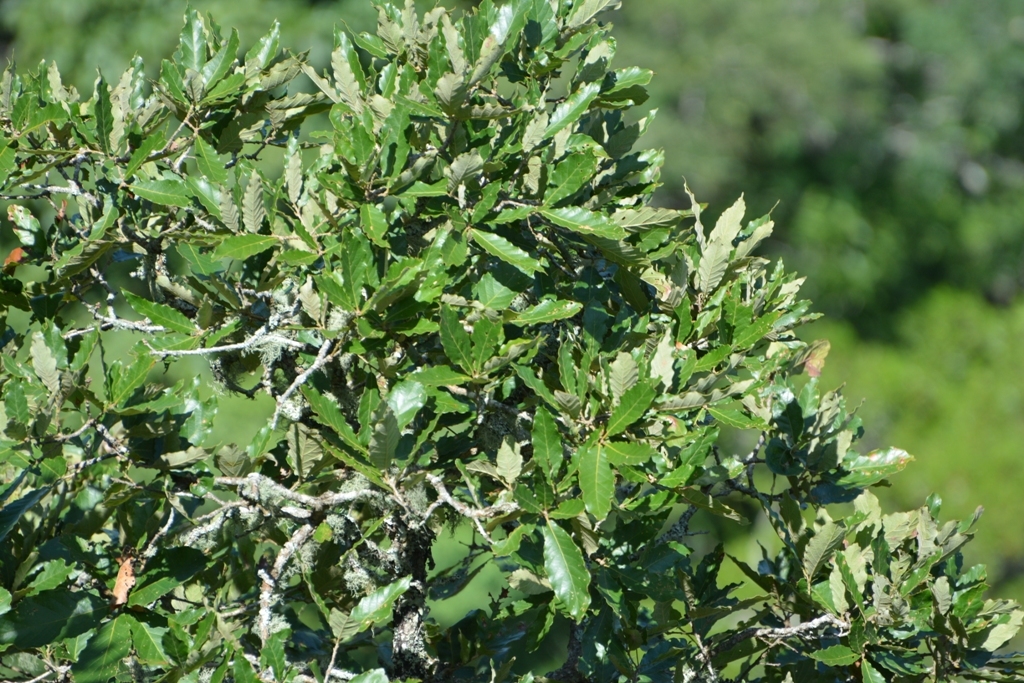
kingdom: Plantae
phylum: Tracheophyta
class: Magnoliopsida
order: Fagales
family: Fagaceae
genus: Quercus
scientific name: Quercus purulhana
